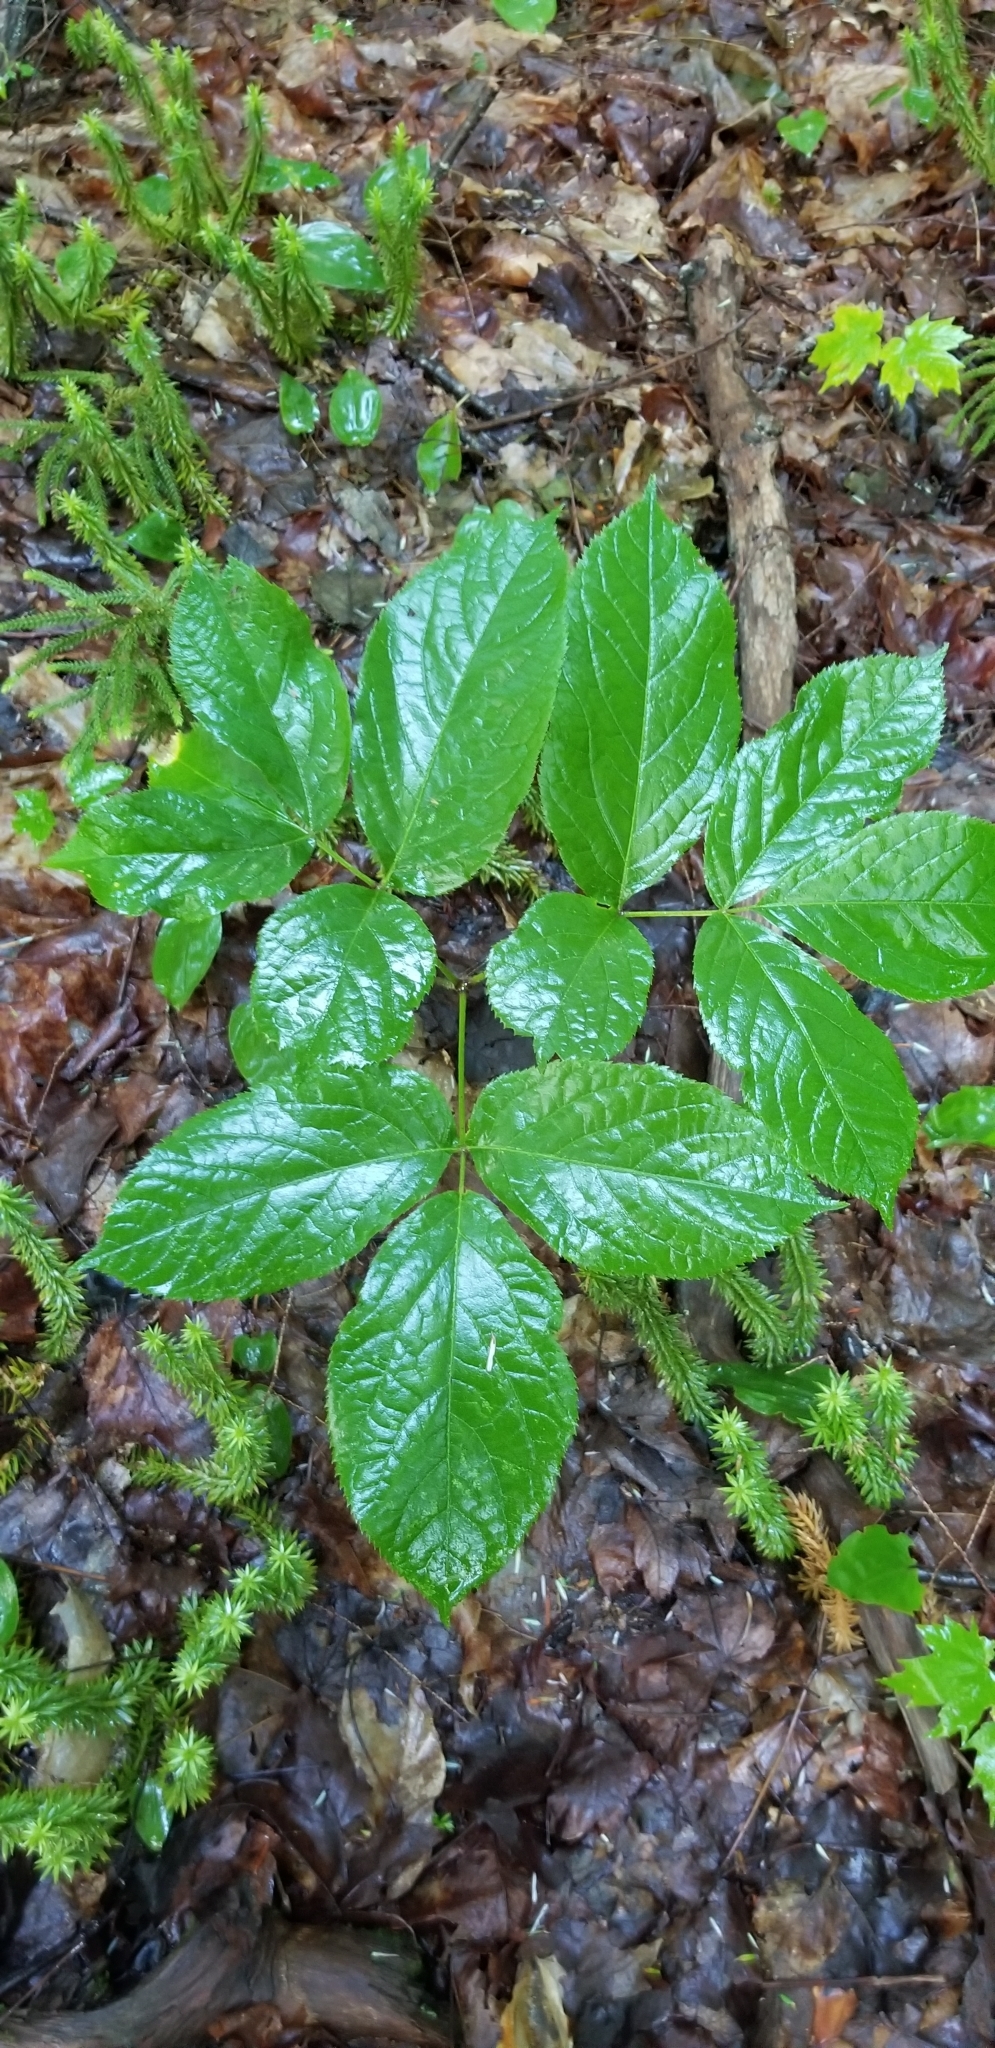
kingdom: Plantae
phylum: Tracheophyta
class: Magnoliopsida
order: Apiales
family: Araliaceae
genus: Aralia
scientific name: Aralia nudicaulis
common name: Wild sarsaparilla
